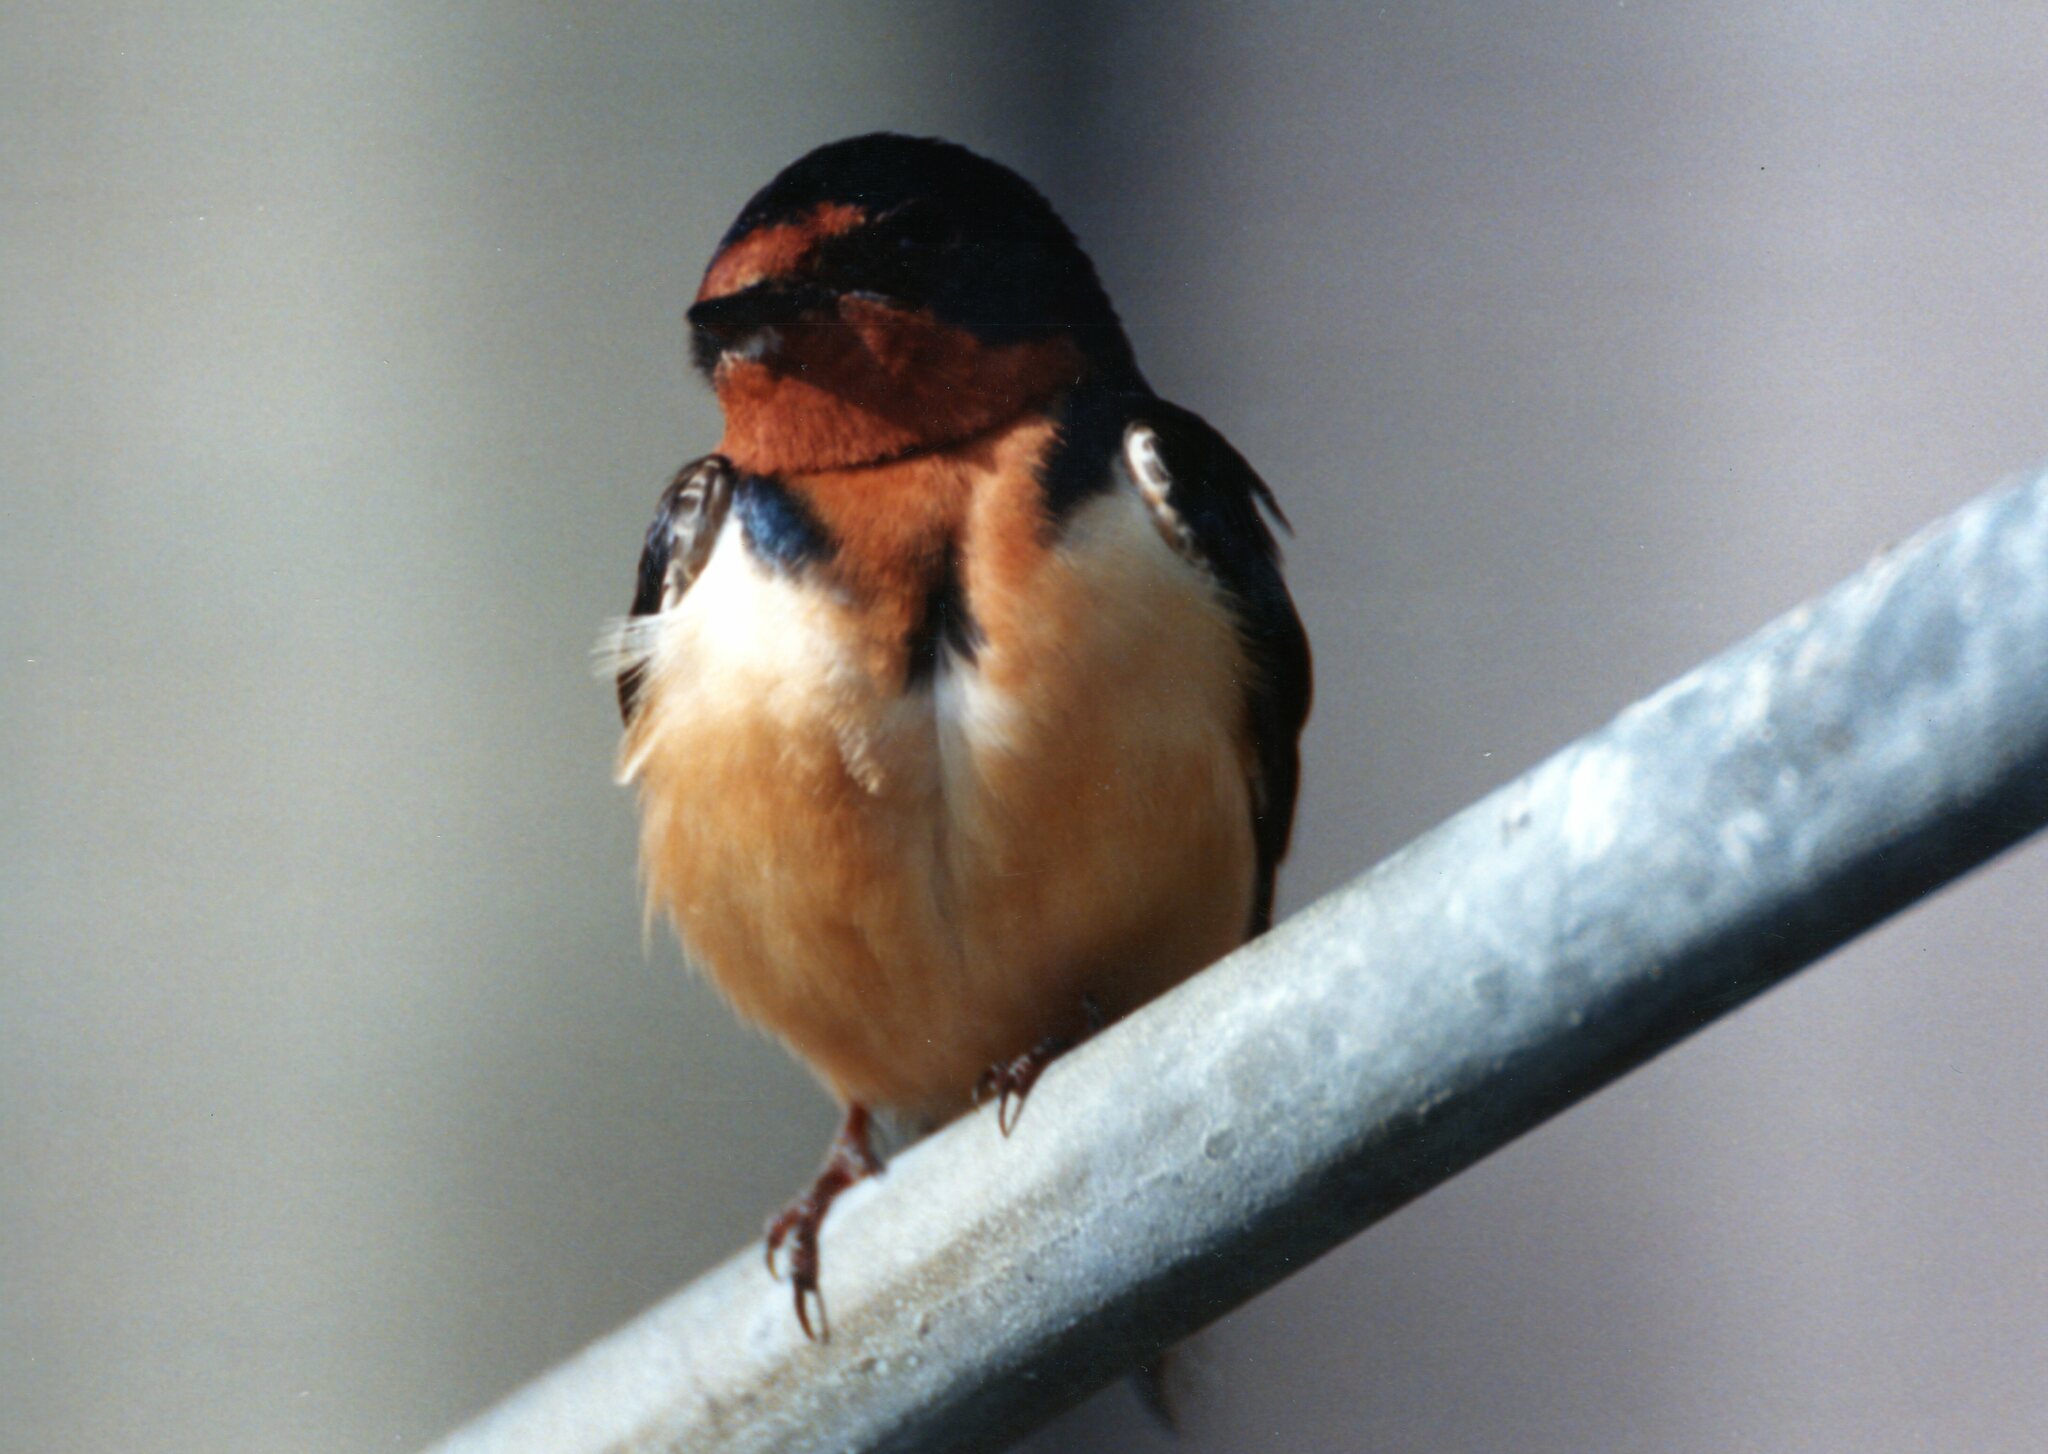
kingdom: Animalia
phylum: Chordata
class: Aves
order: Passeriformes
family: Hirundinidae
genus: Hirundo
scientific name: Hirundo rustica
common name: Barn swallow
